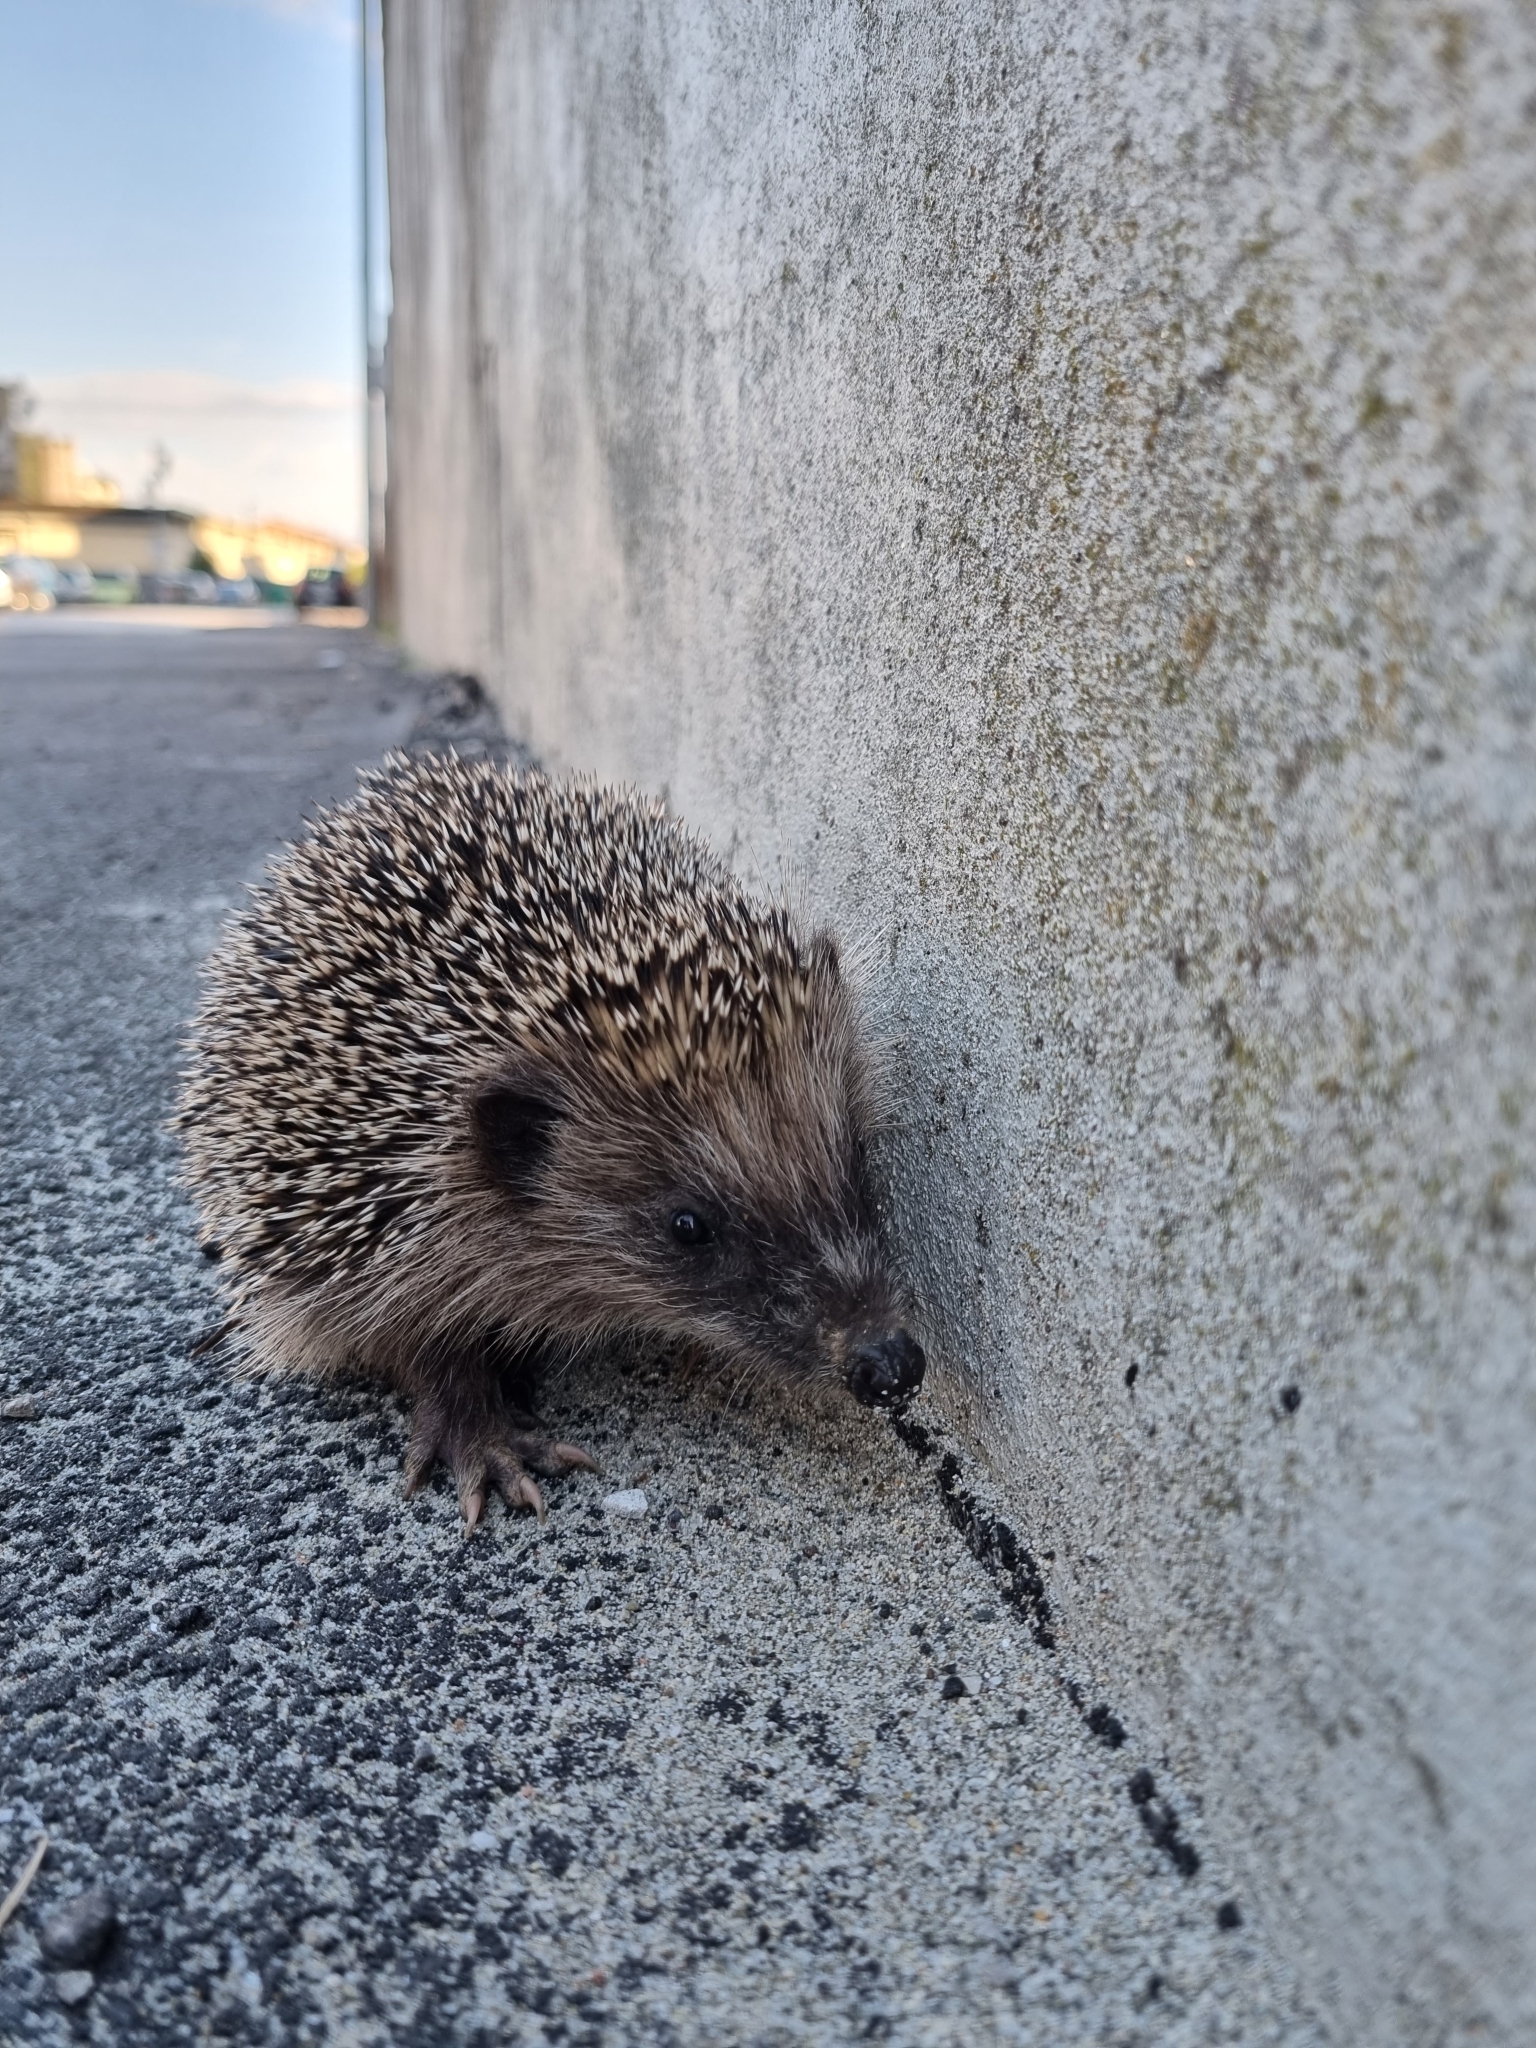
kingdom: Animalia
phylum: Chordata
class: Mammalia
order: Erinaceomorpha
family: Erinaceidae
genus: Erinaceus
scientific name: Erinaceus europaeus
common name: West european hedgehog
